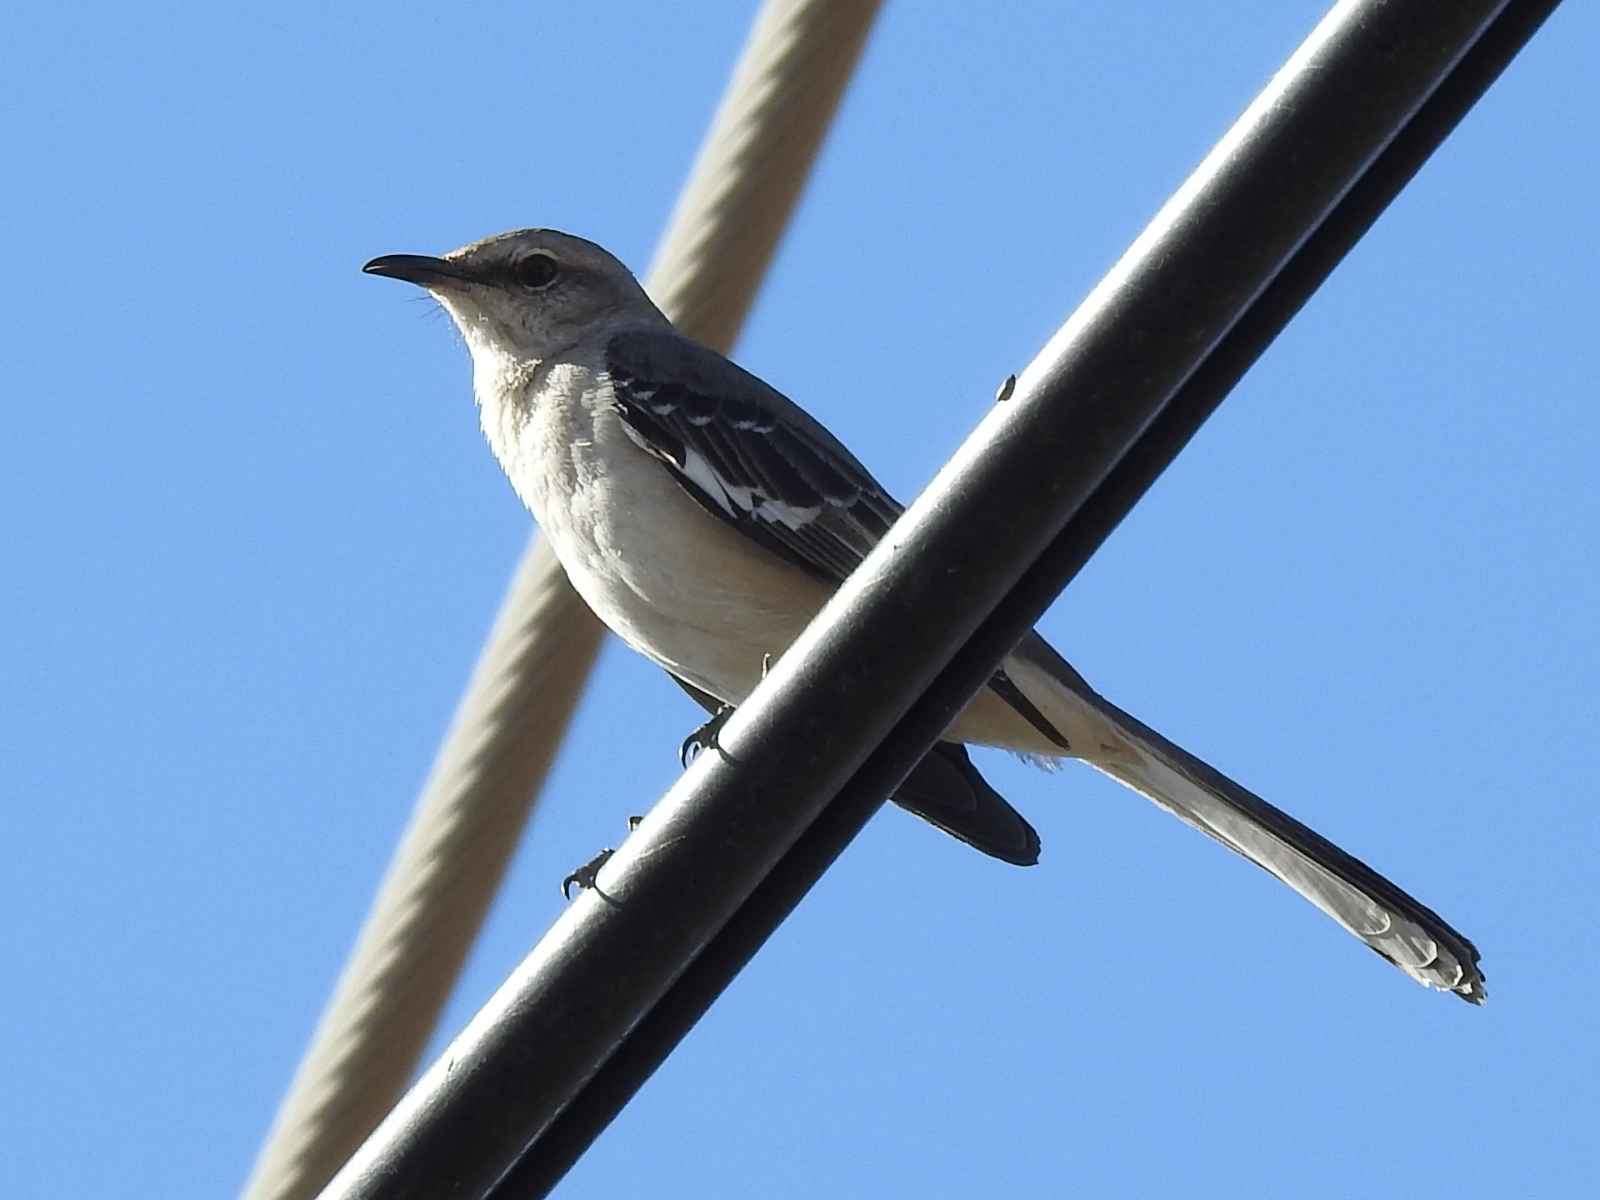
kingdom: Animalia
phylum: Chordata
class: Aves
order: Passeriformes
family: Mimidae
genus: Mimus
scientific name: Mimus polyglottos
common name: Northern mockingbird
